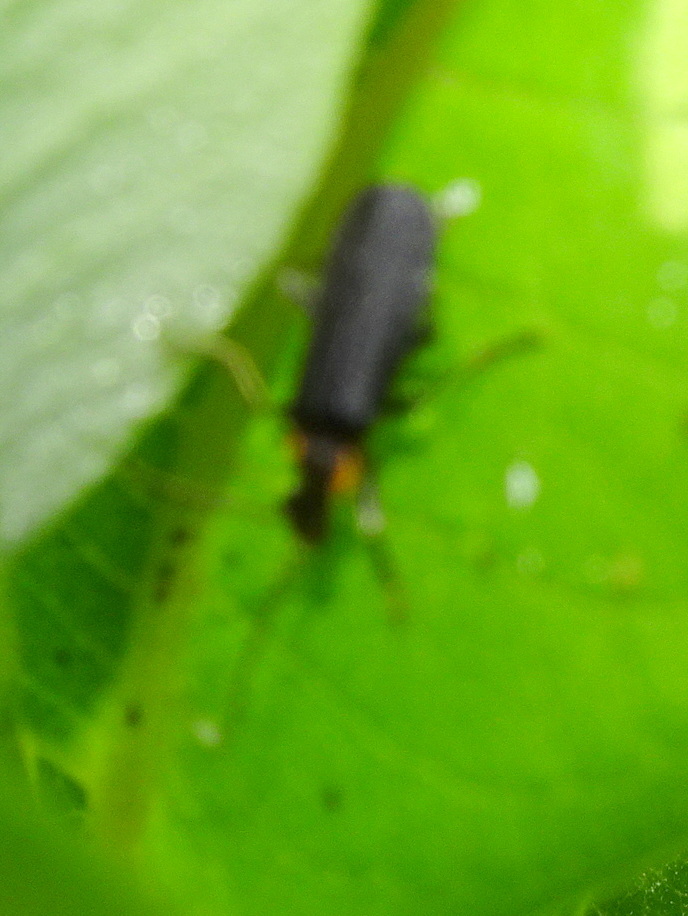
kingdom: Animalia
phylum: Arthropoda
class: Insecta
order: Coleoptera
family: Cantharidae
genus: Podabrus
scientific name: Podabrus rugosulus
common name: Wrinkled soldier beetle
